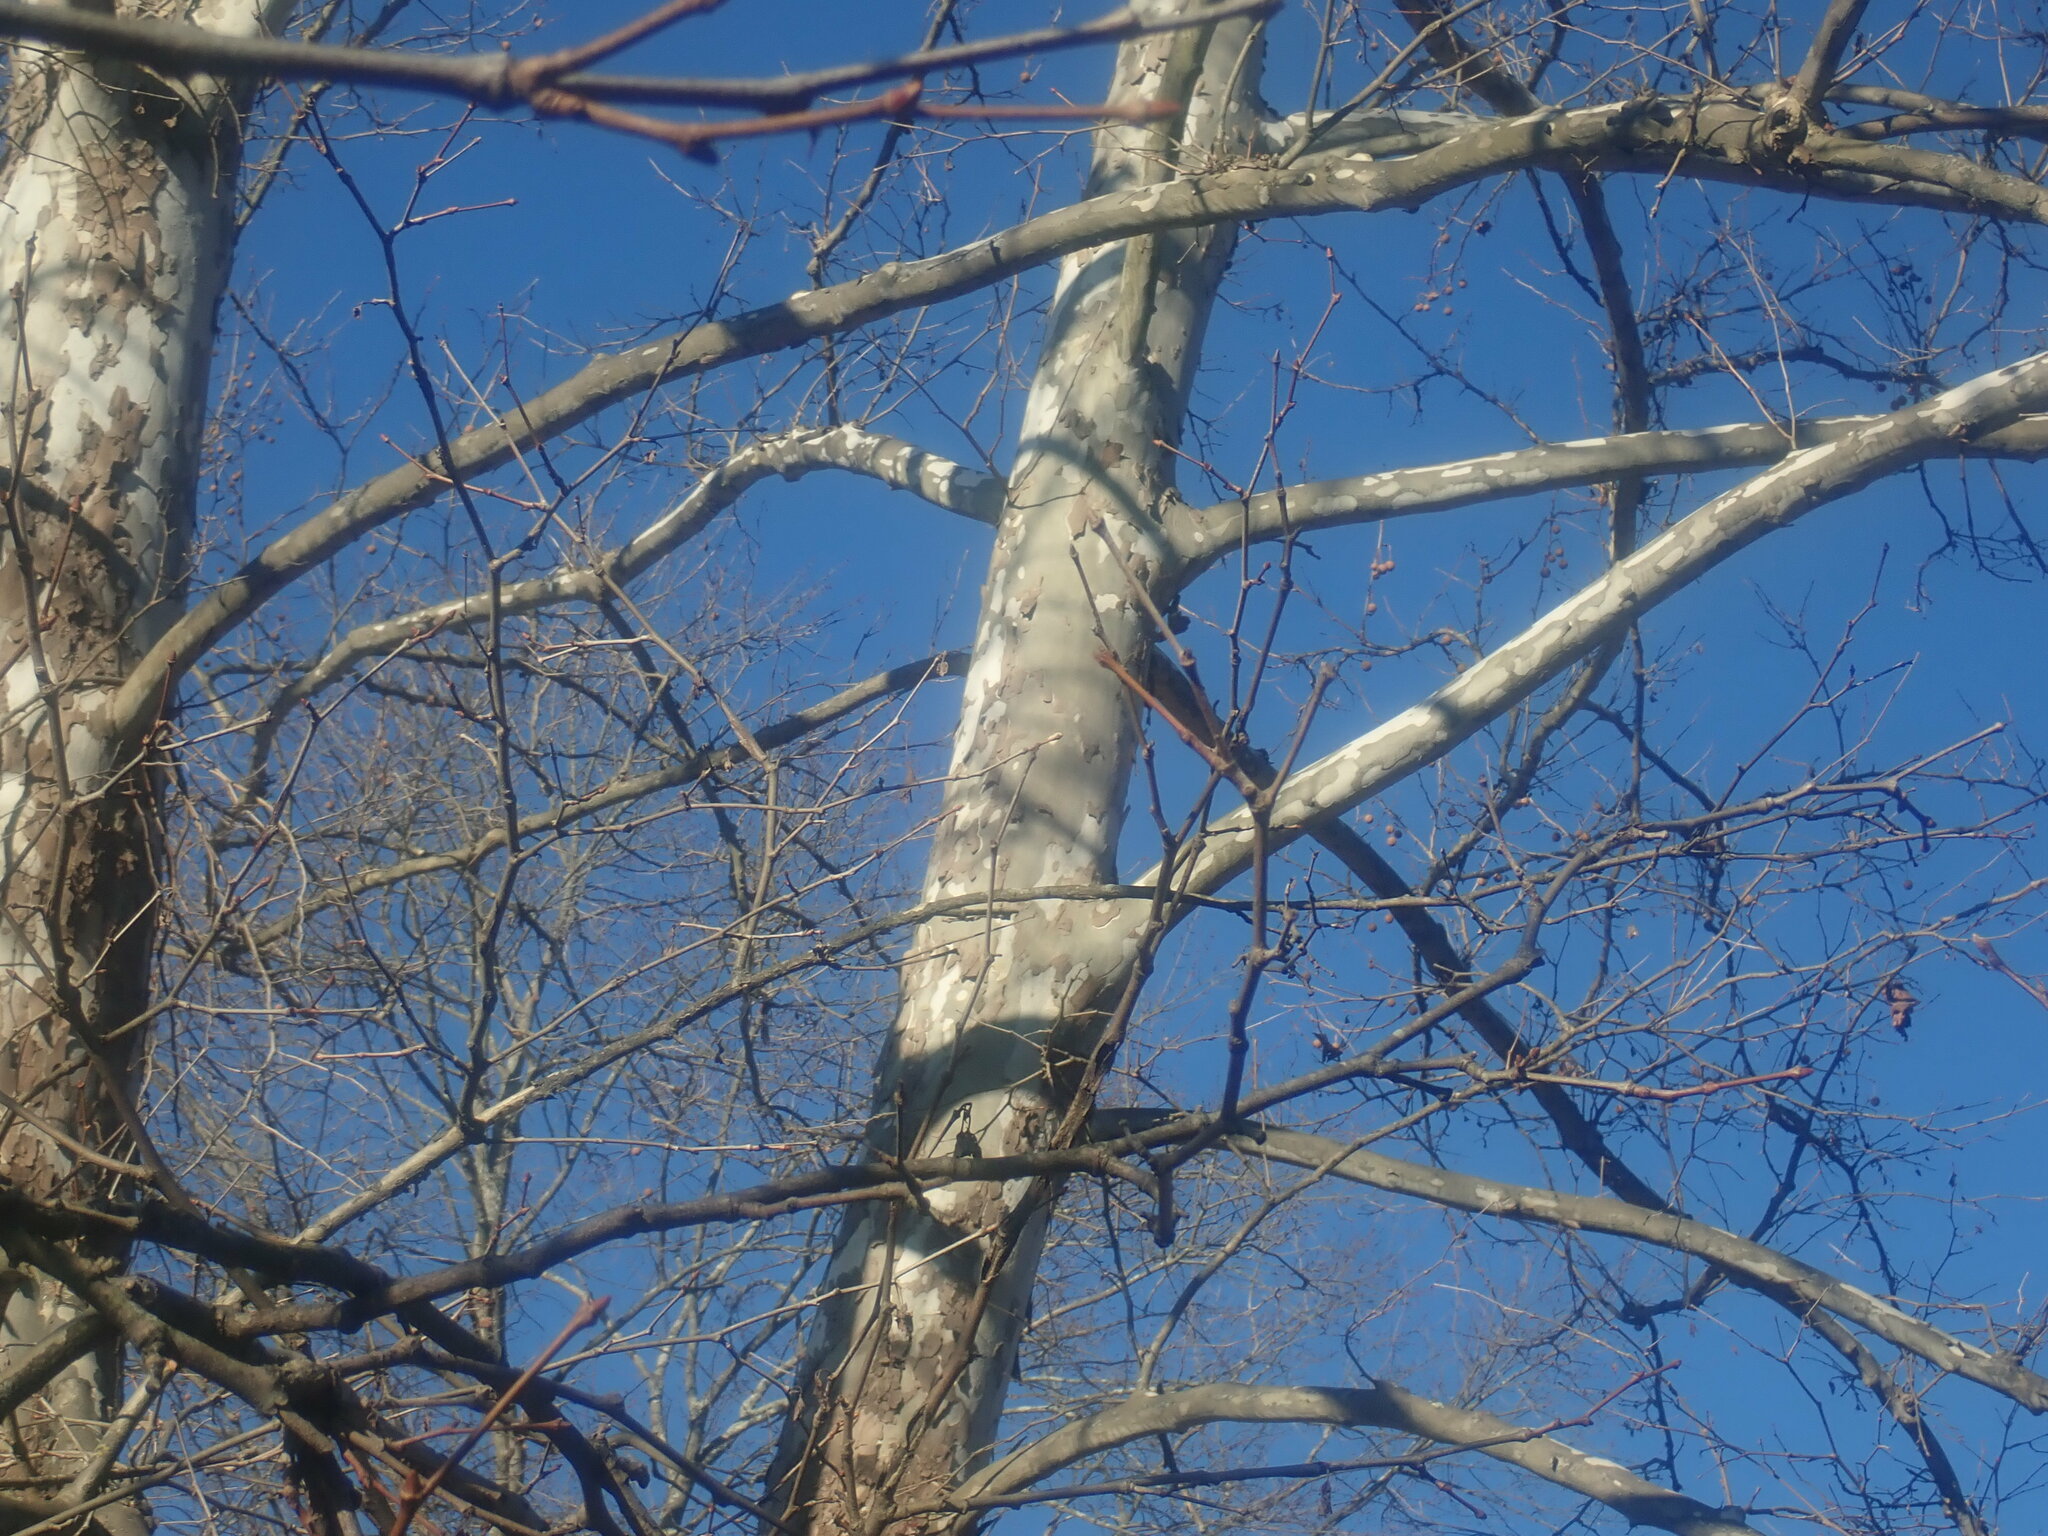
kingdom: Plantae
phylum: Tracheophyta
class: Magnoliopsida
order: Proteales
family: Platanaceae
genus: Platanus
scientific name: Platanus occidentalis
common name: American sycamore
